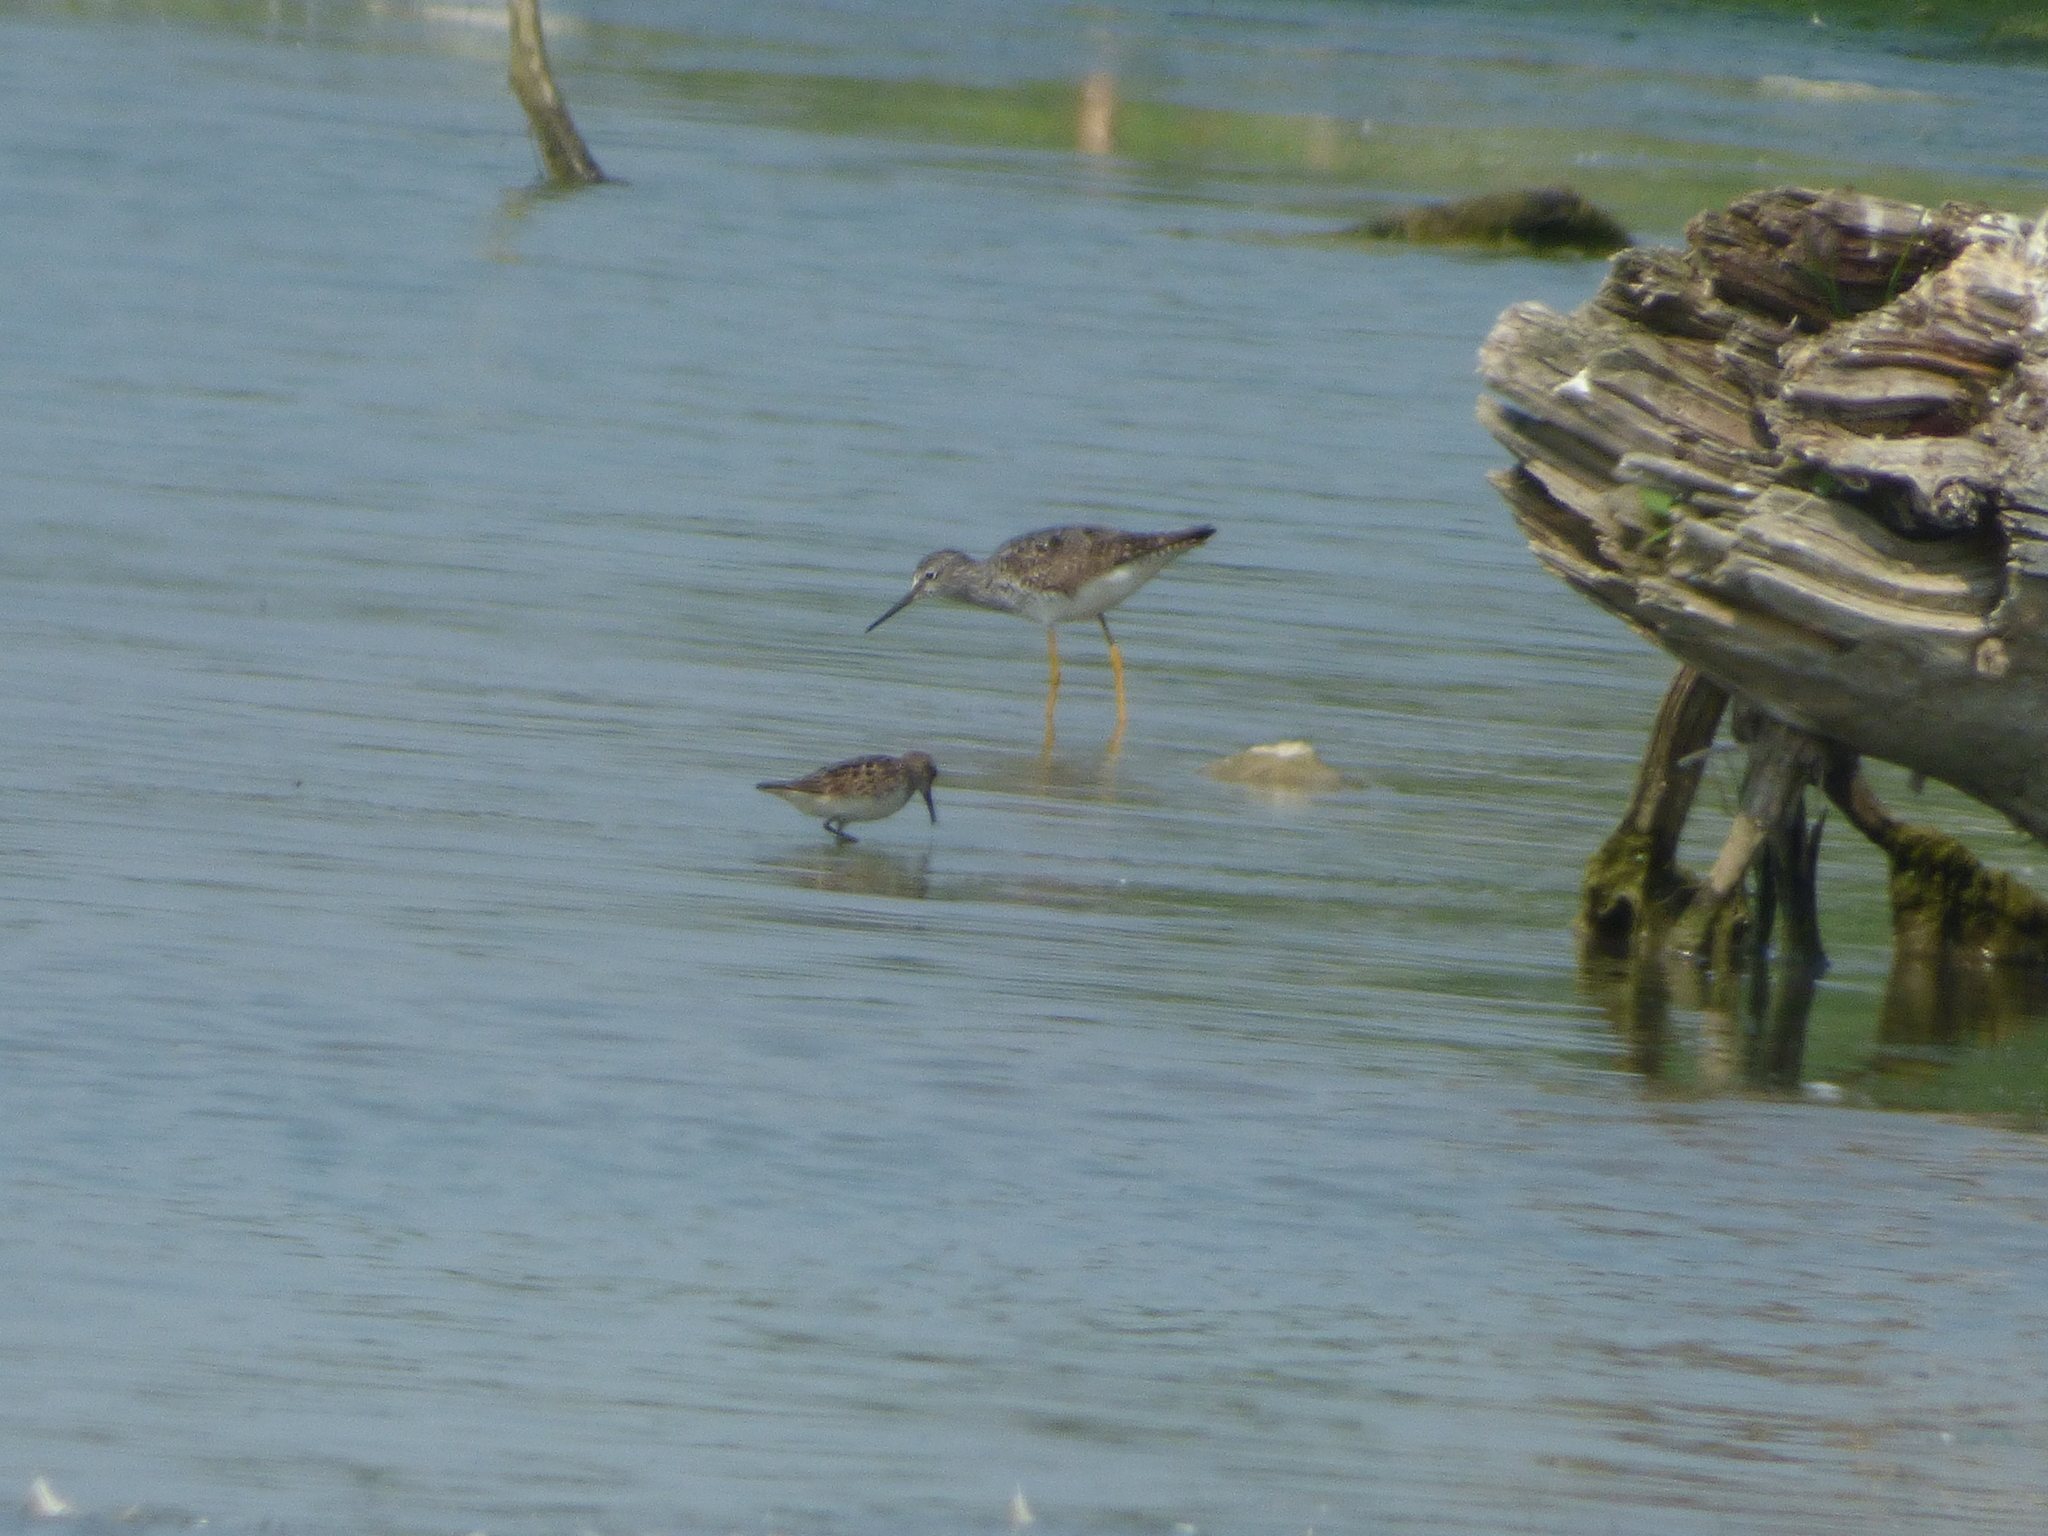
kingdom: Animalia
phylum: Chordata
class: Aves
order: Charadriiformes
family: Scolopacidae
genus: Tringa
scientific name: Tringa flavipes
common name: Lesser yellowlegs
